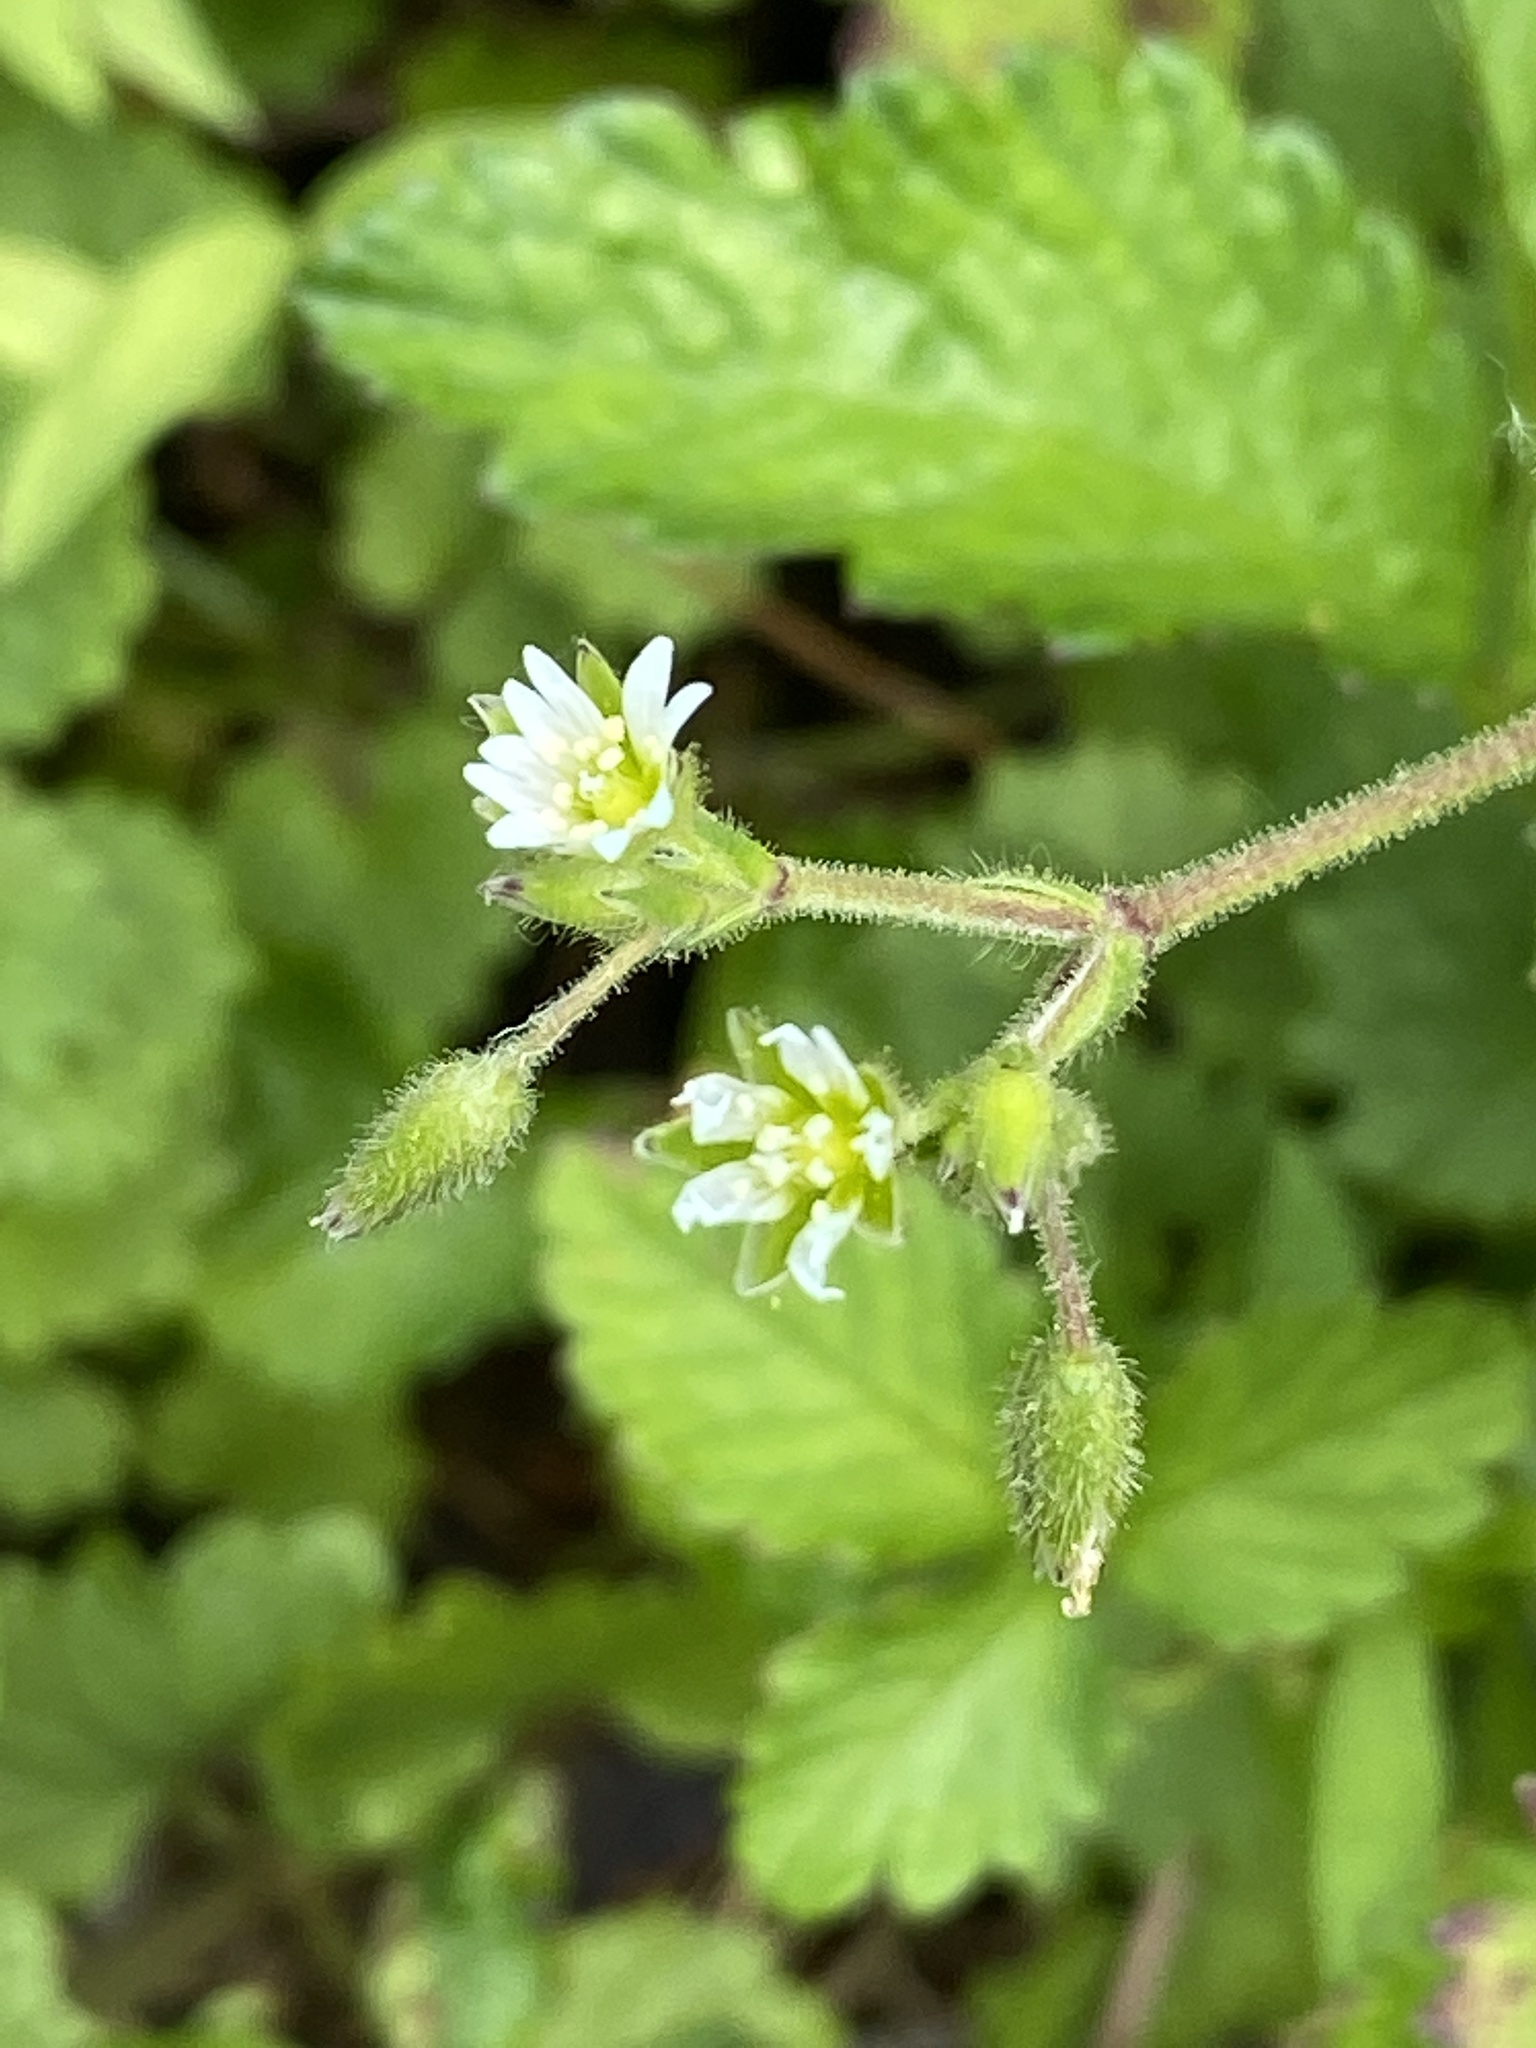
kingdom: Plantae
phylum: Tracheophyta
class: Magnoliopsida
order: Caryophyllales
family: Caryophyllaceae
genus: Cerastium
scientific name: Cerastium fontanum
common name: Common mouse-ear
